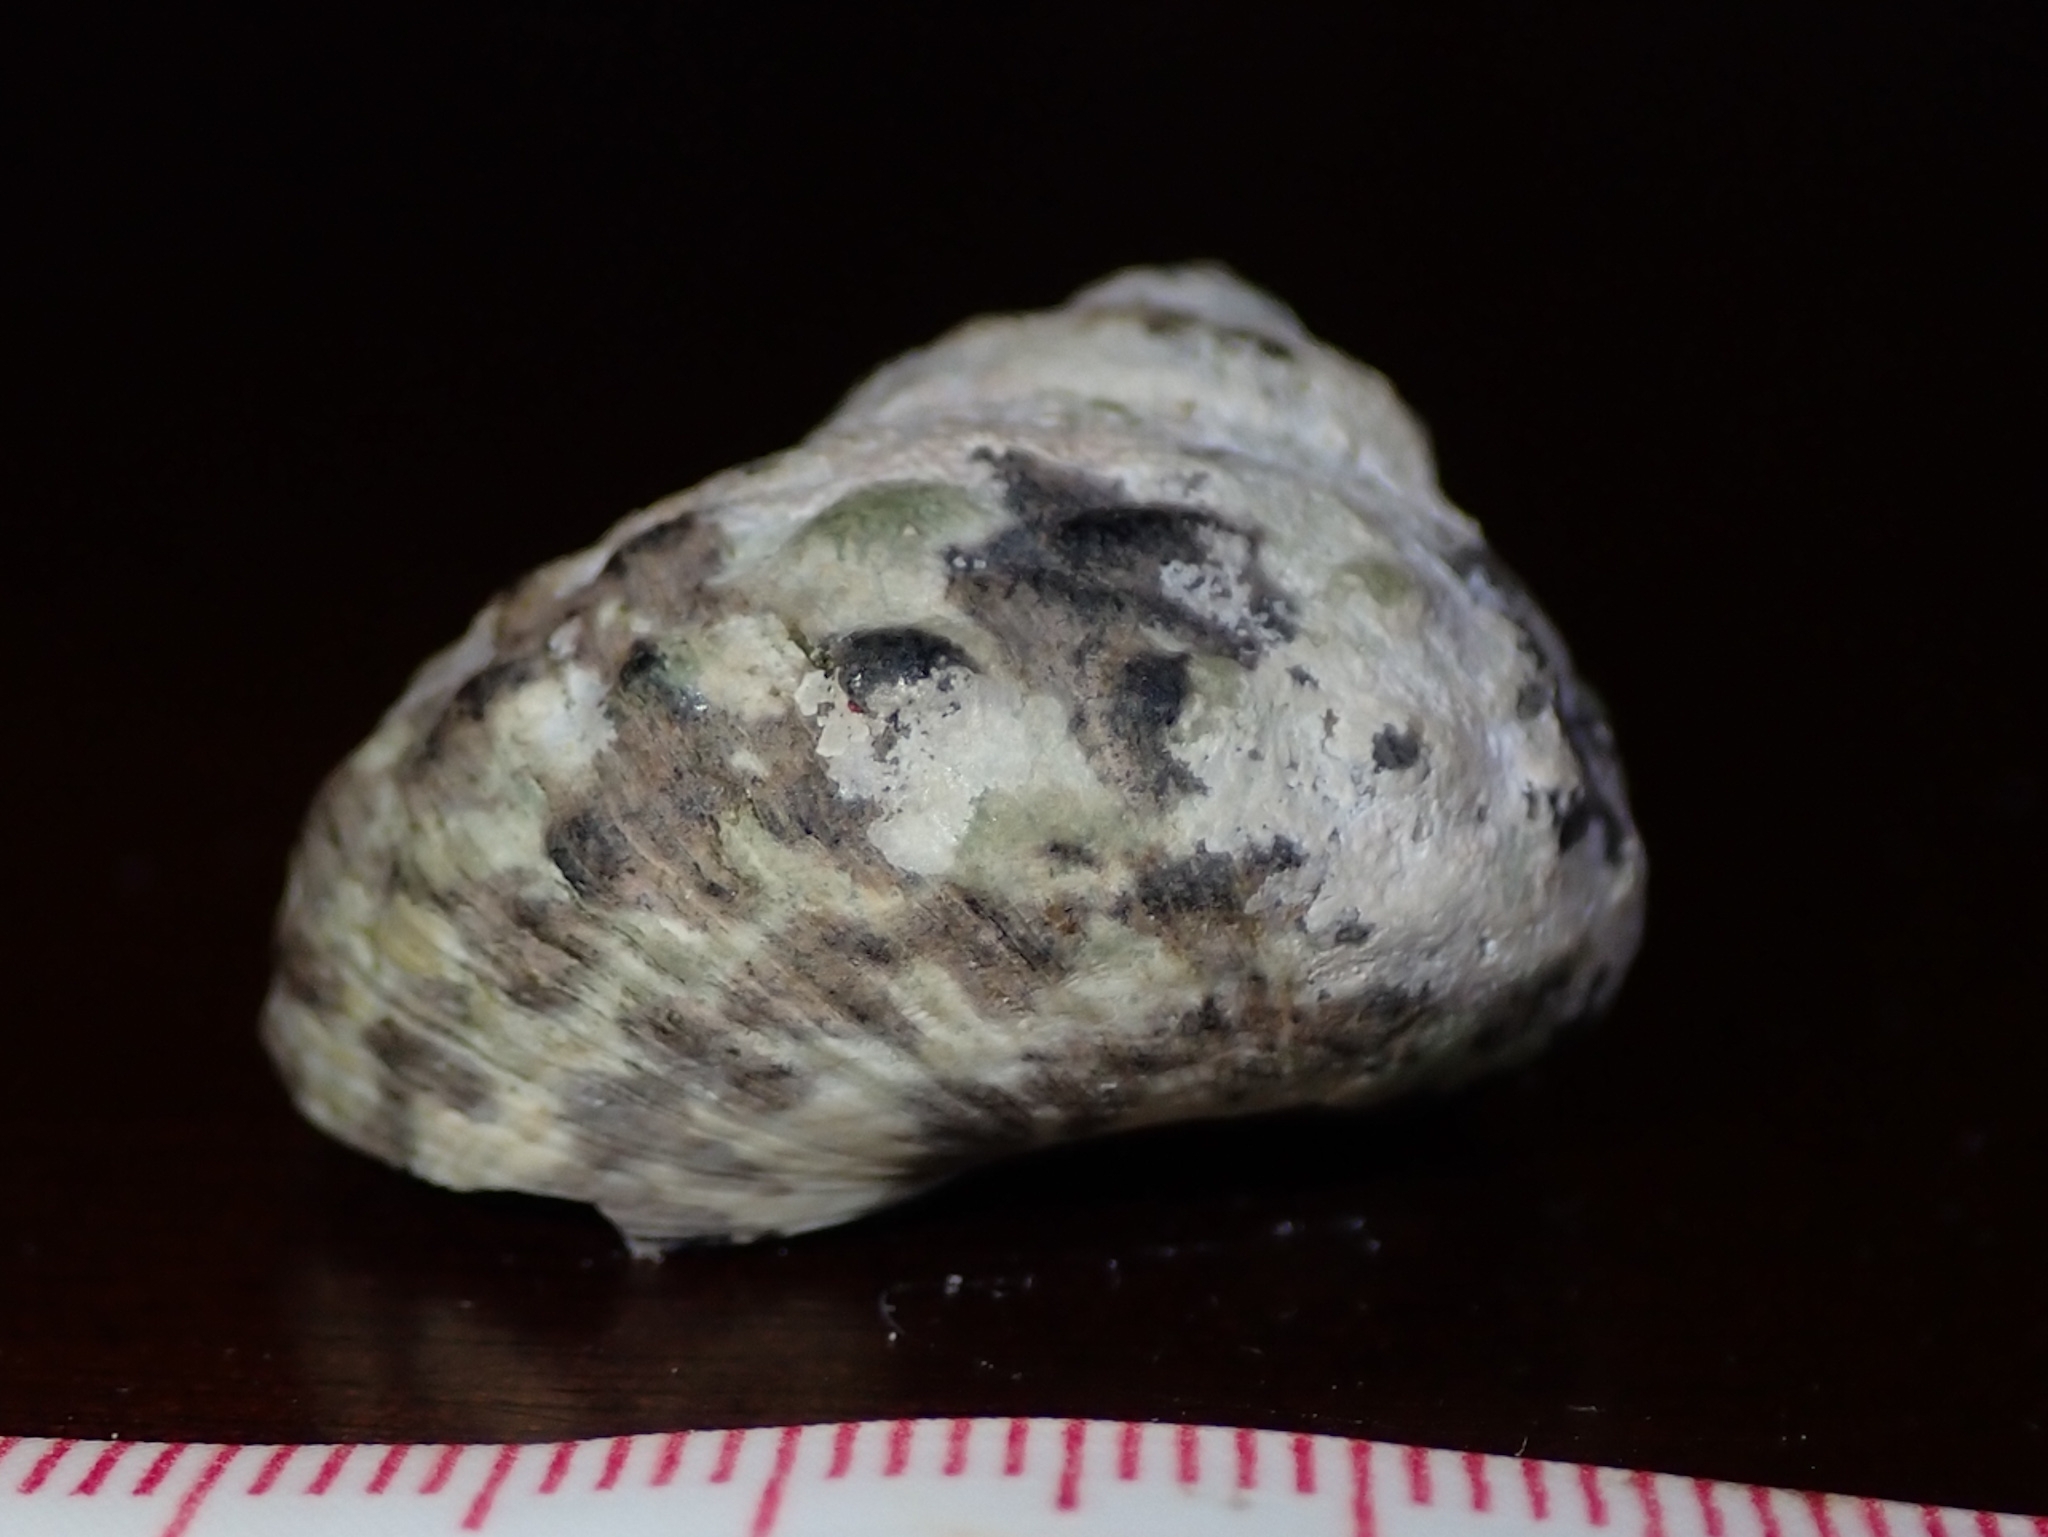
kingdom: Animalia
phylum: Mollusca
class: Gastropoda
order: Trochida
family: Tegulidae
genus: Cittarium
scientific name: Cittarium pica
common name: West indian topshell
